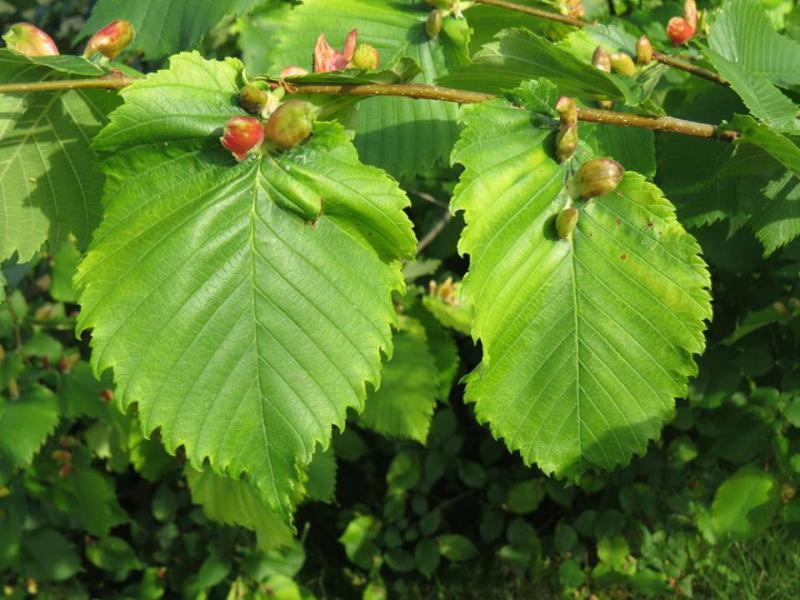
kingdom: Animalia
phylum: Arthropoda
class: Insecta
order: Hemiptera
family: Aphididae
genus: Colopha
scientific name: Colopha compressa
